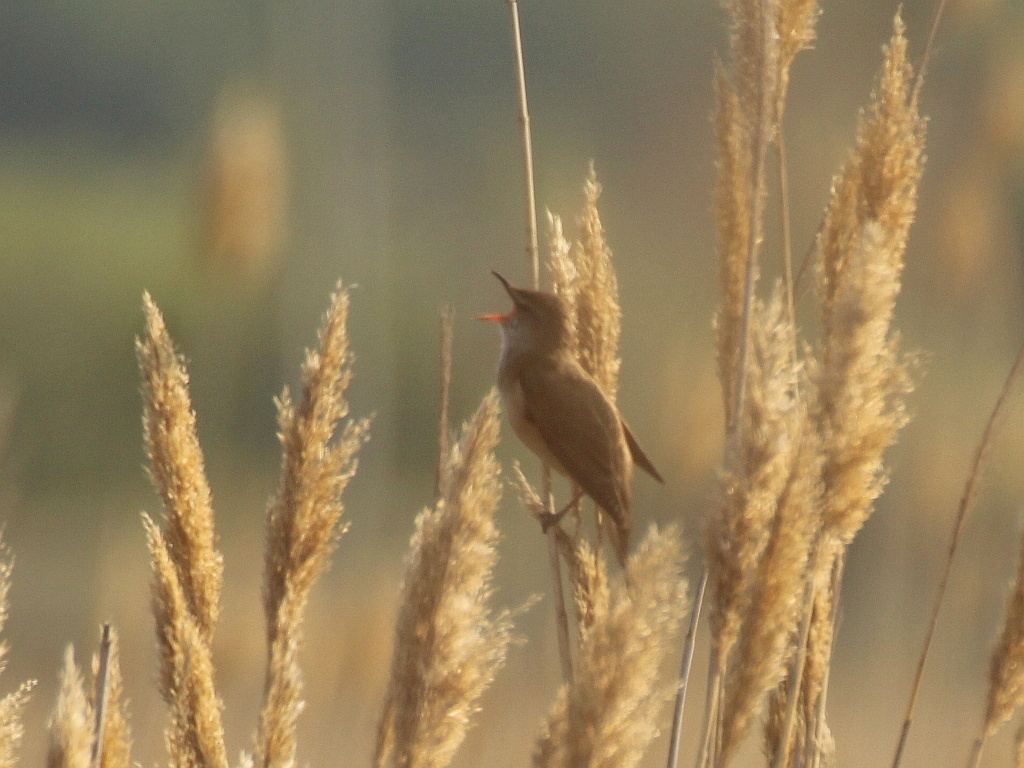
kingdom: Animalia
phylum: Chordata
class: Aves
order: Passeriformes
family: Acrocephalidae
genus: Acrocephalus
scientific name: Acrocephalus arundinaceus
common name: Great reed warbler
